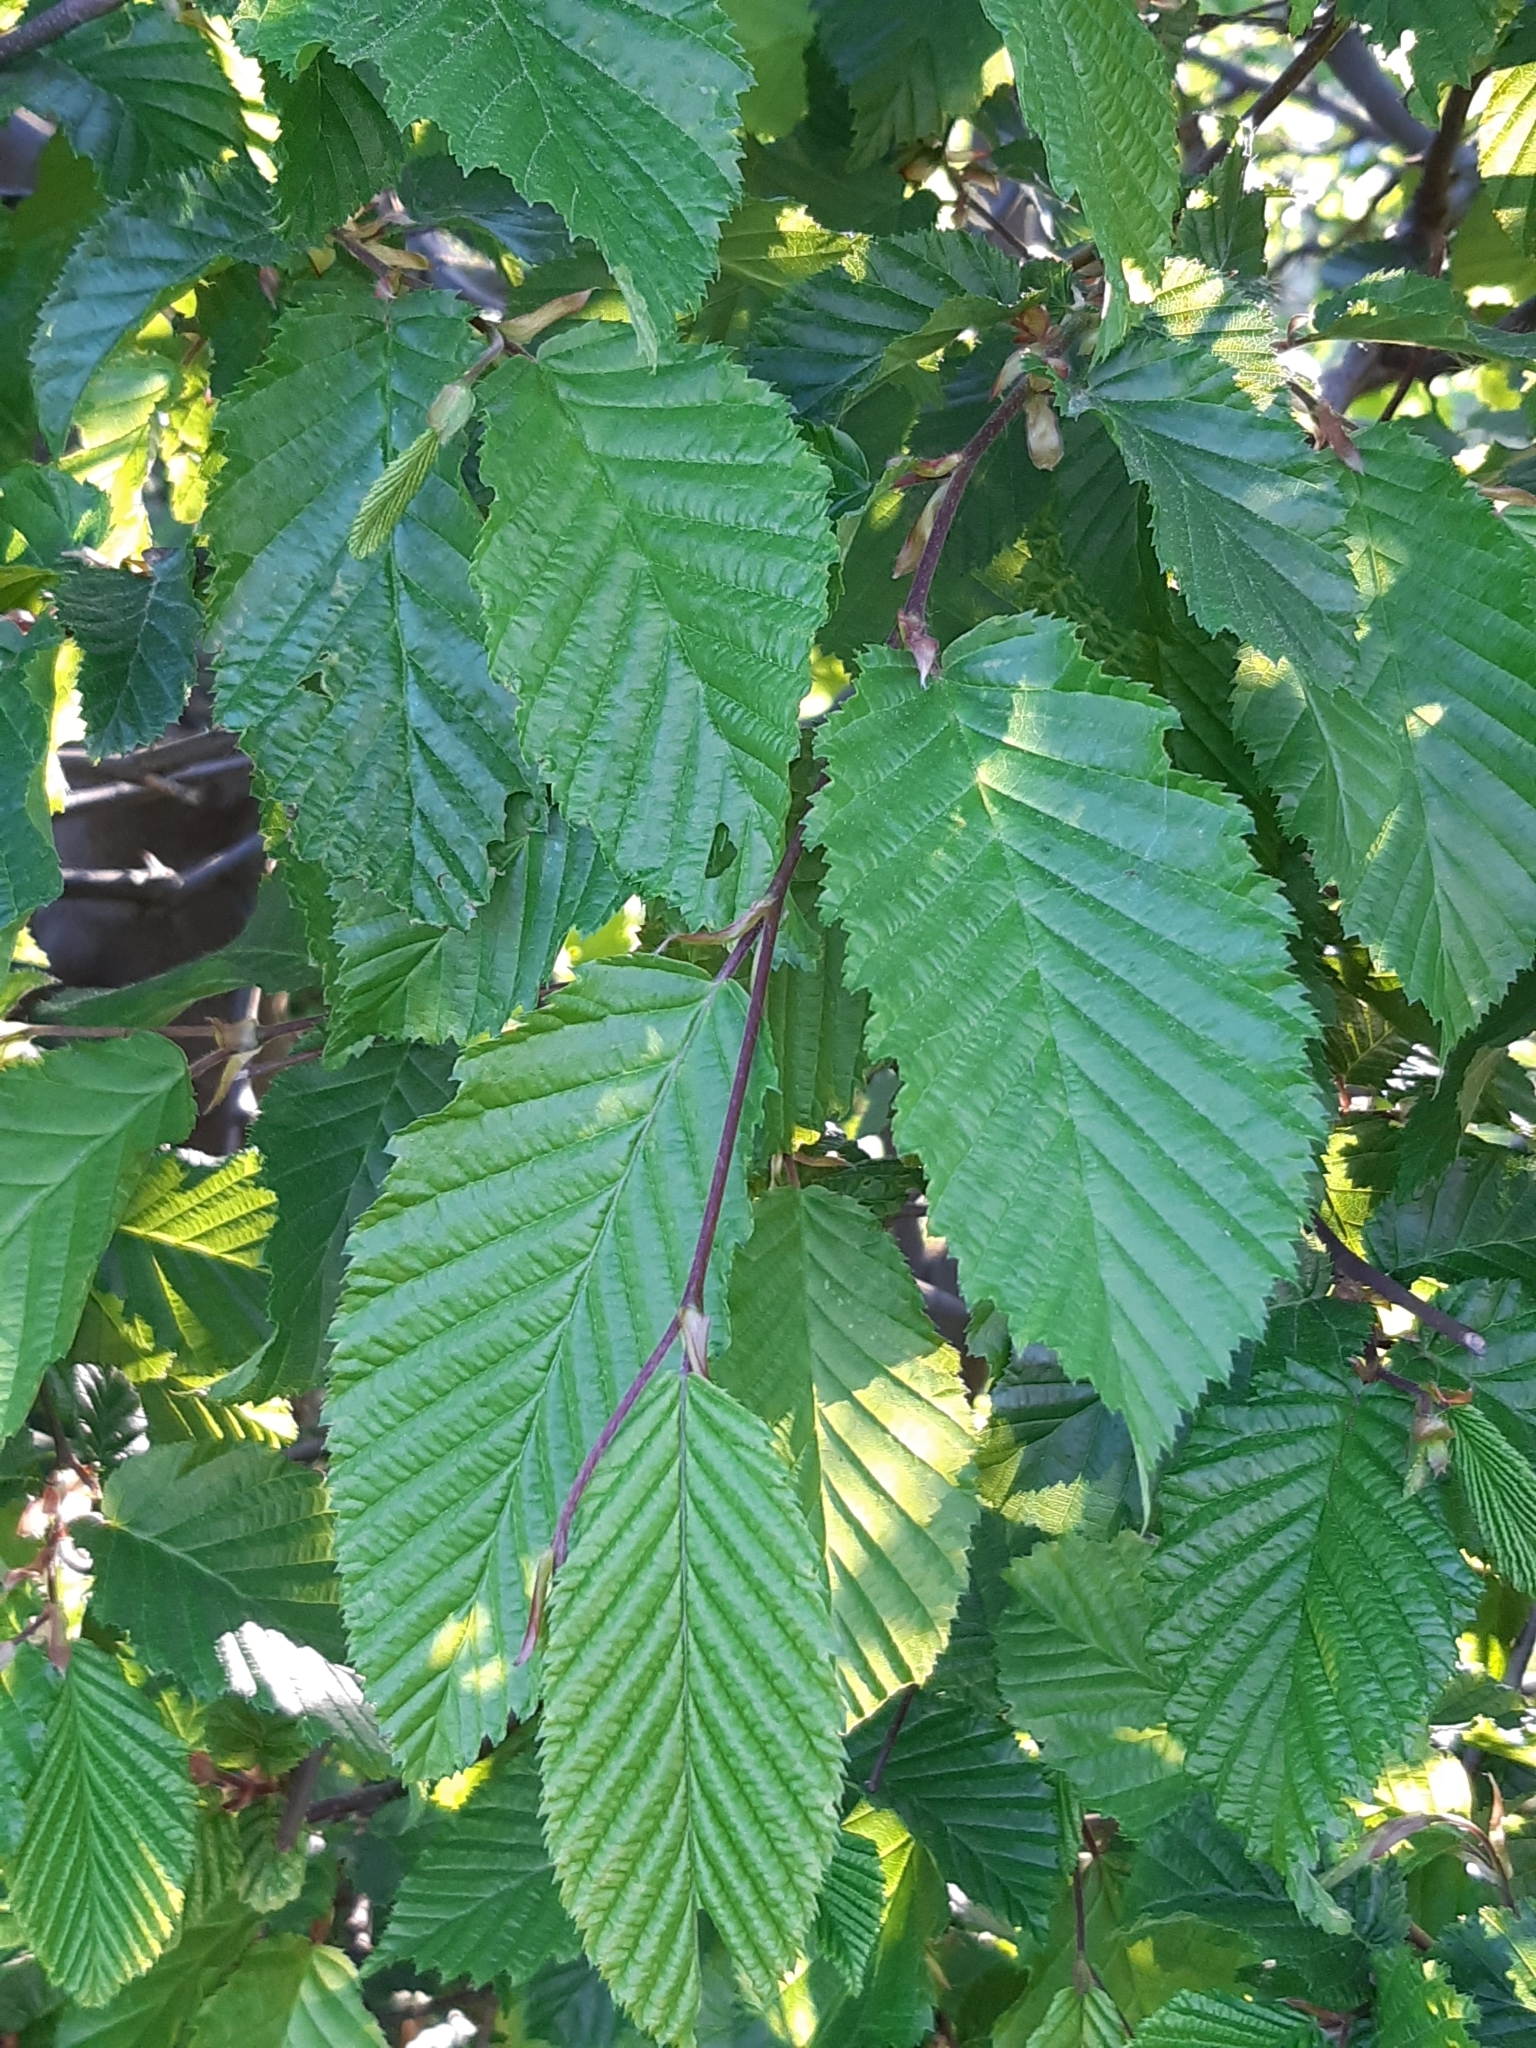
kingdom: Plantae
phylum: Tracheophyta
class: Magnoliopsida
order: Fagales
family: Betulaceae
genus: Carpinus
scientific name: Carpinus betulus
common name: Hornbeam
